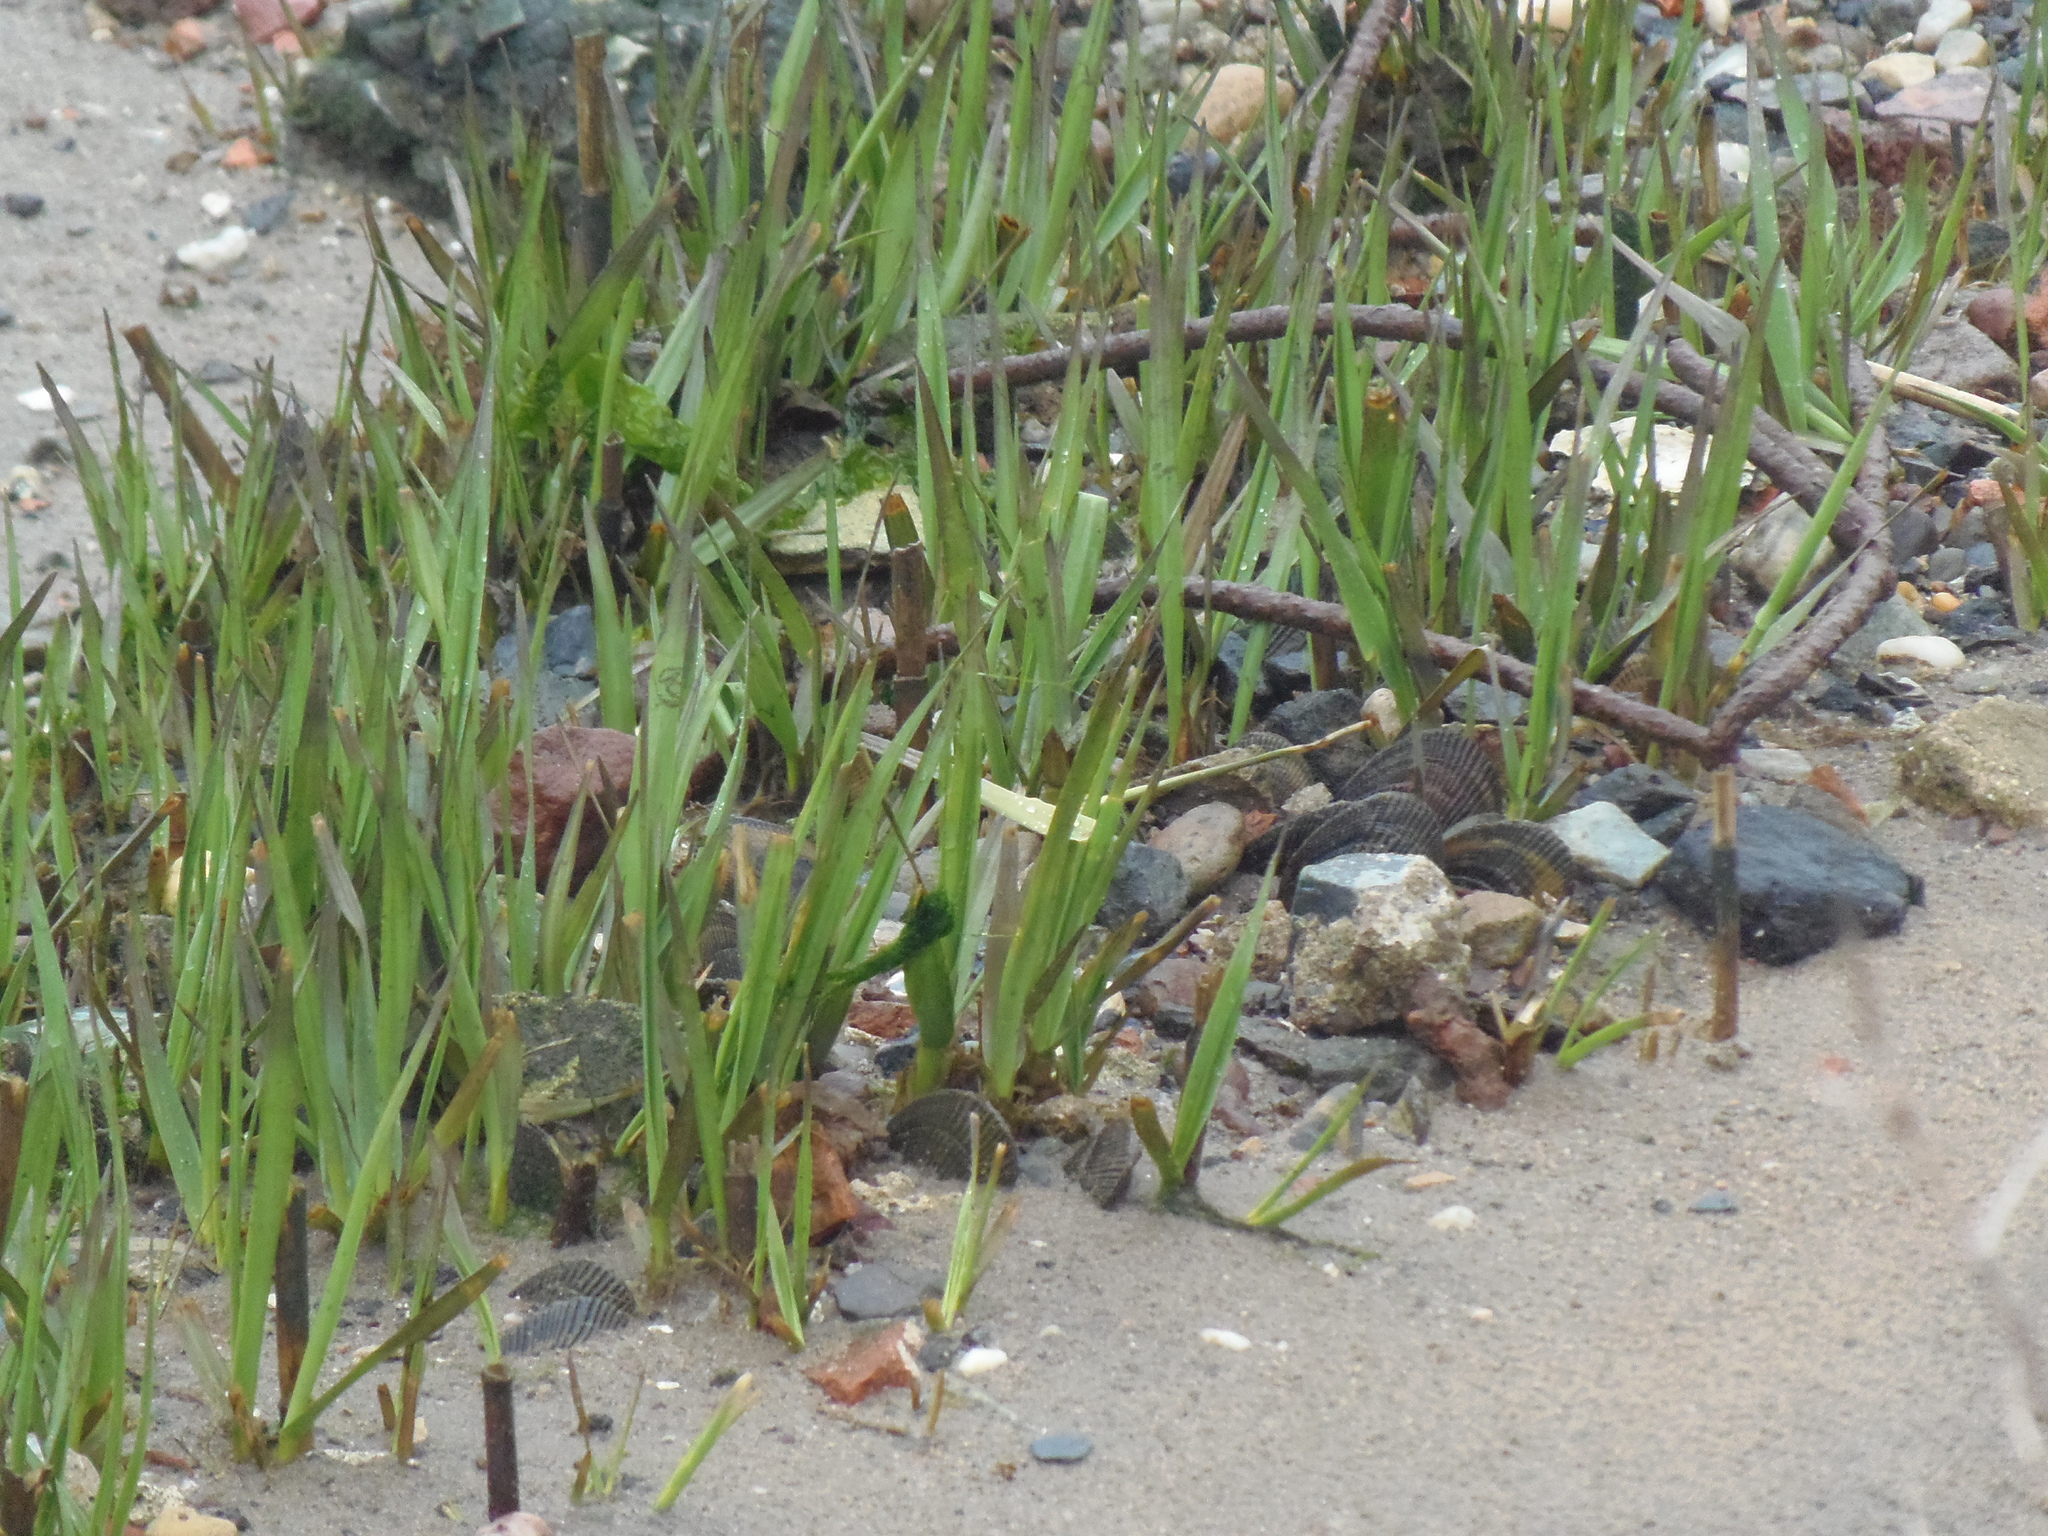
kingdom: Animalia
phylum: Mollusca
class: Bivalvia
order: Mytilida
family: Mytilidae
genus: Geukensia
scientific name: Geukensia demissa
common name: Ribbed mussel
